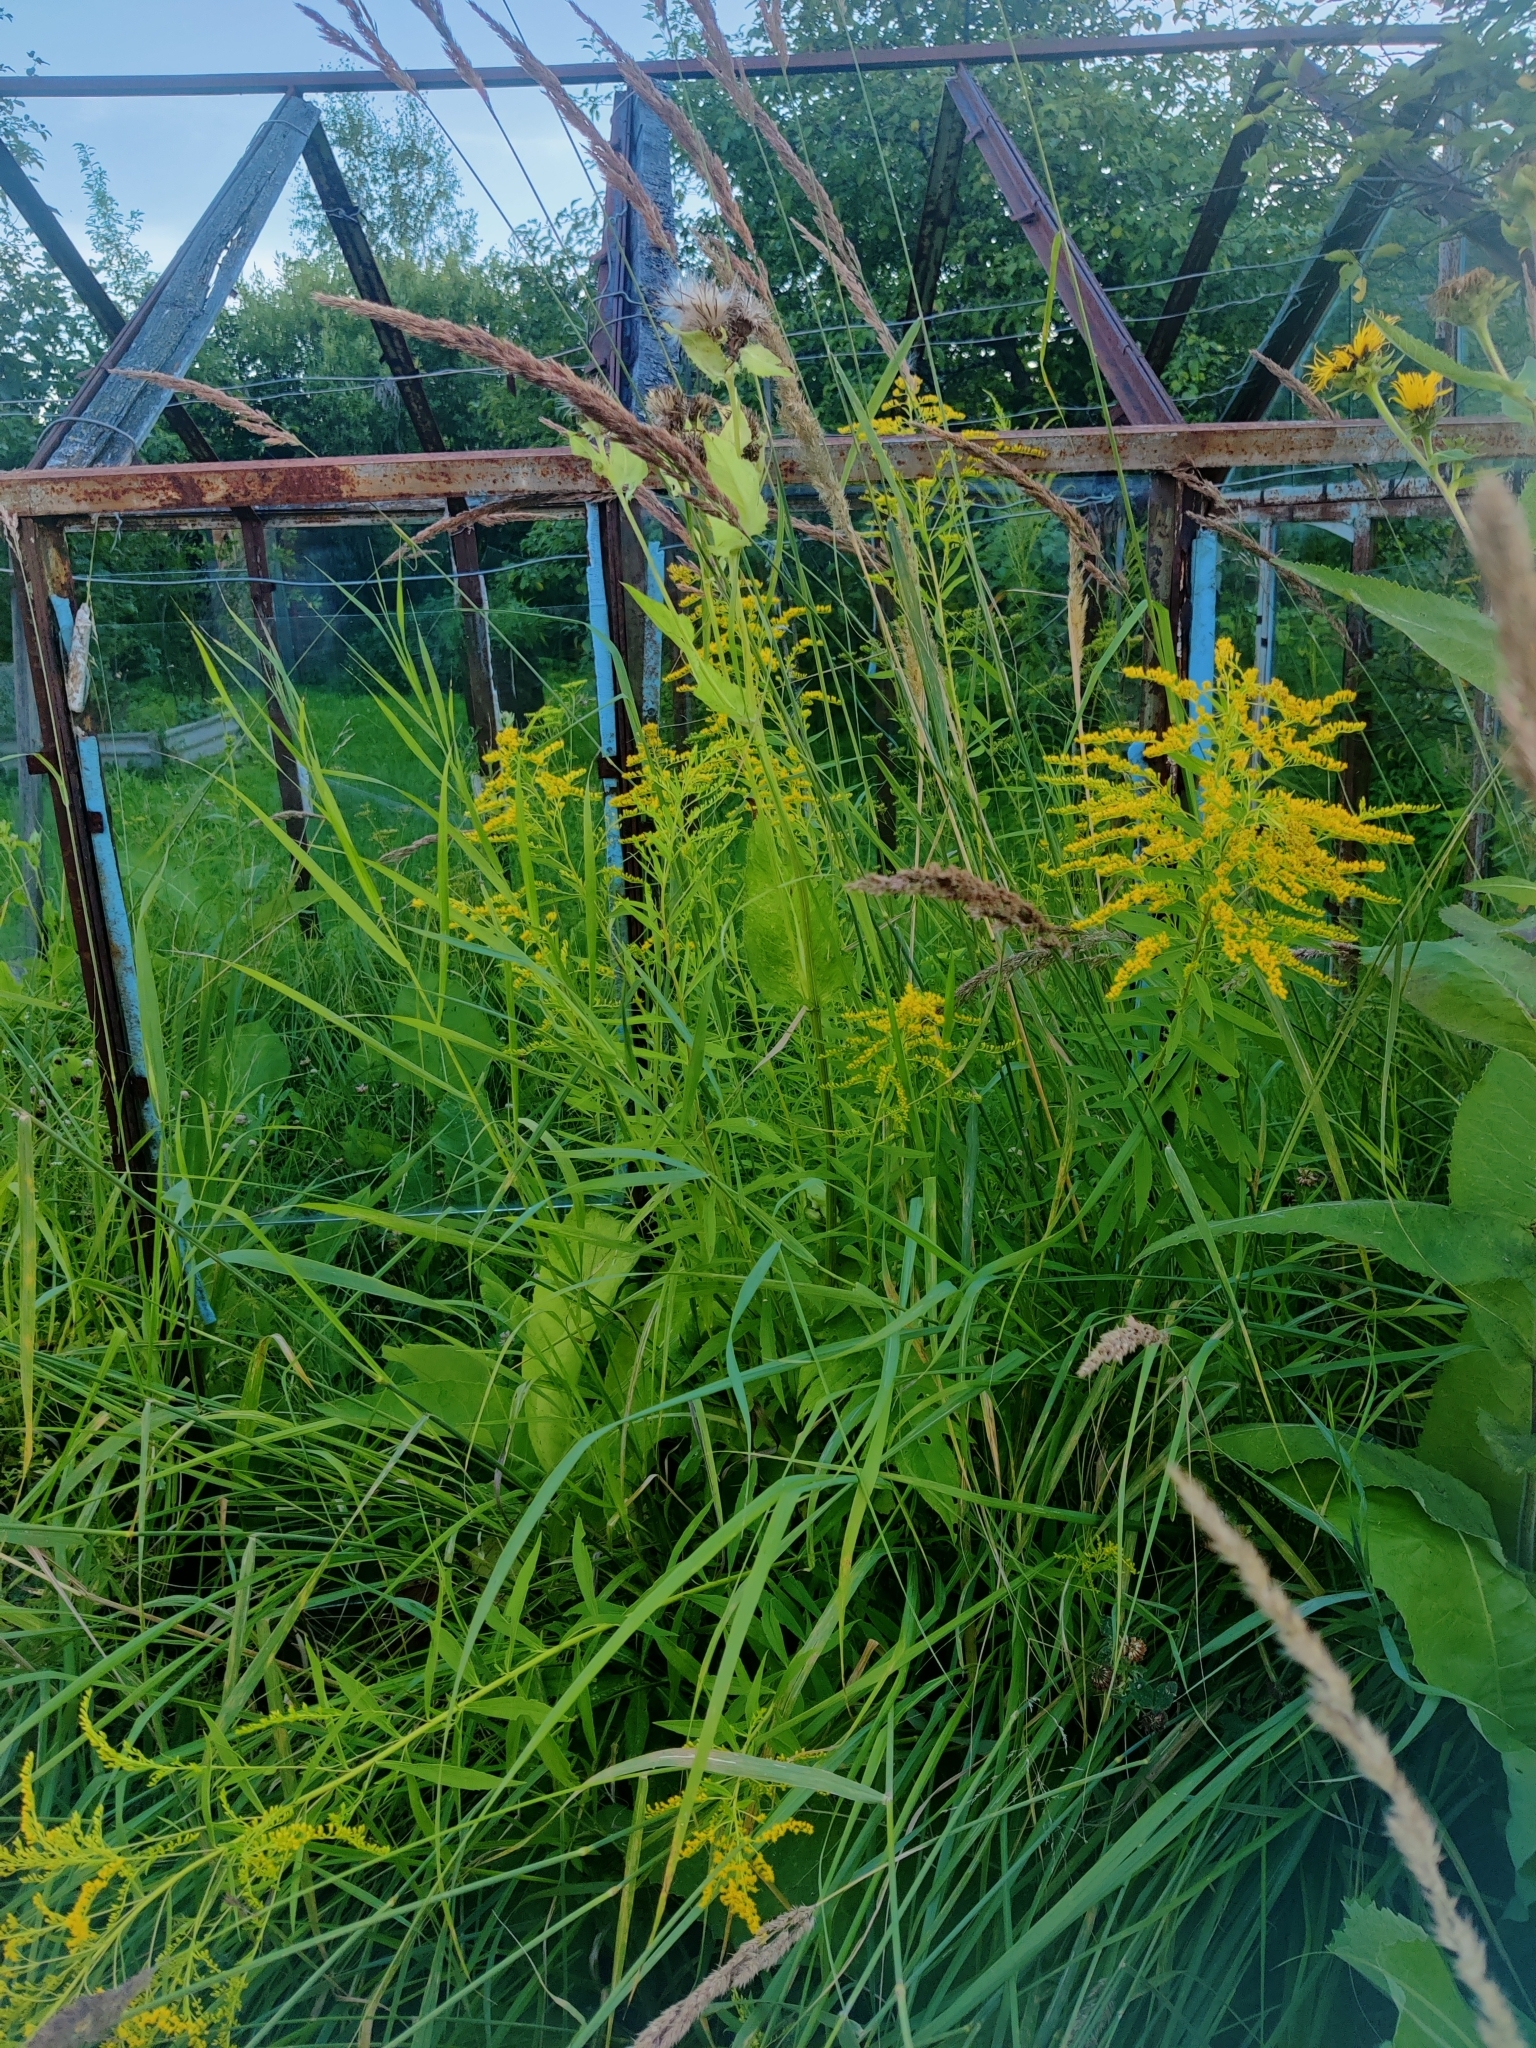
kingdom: Plantae
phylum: Tracheophyta
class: Magnoliopsida
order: Asterales
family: Asteraceae
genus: Solidago
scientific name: Solidago canadensis
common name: Canada goldenrod
